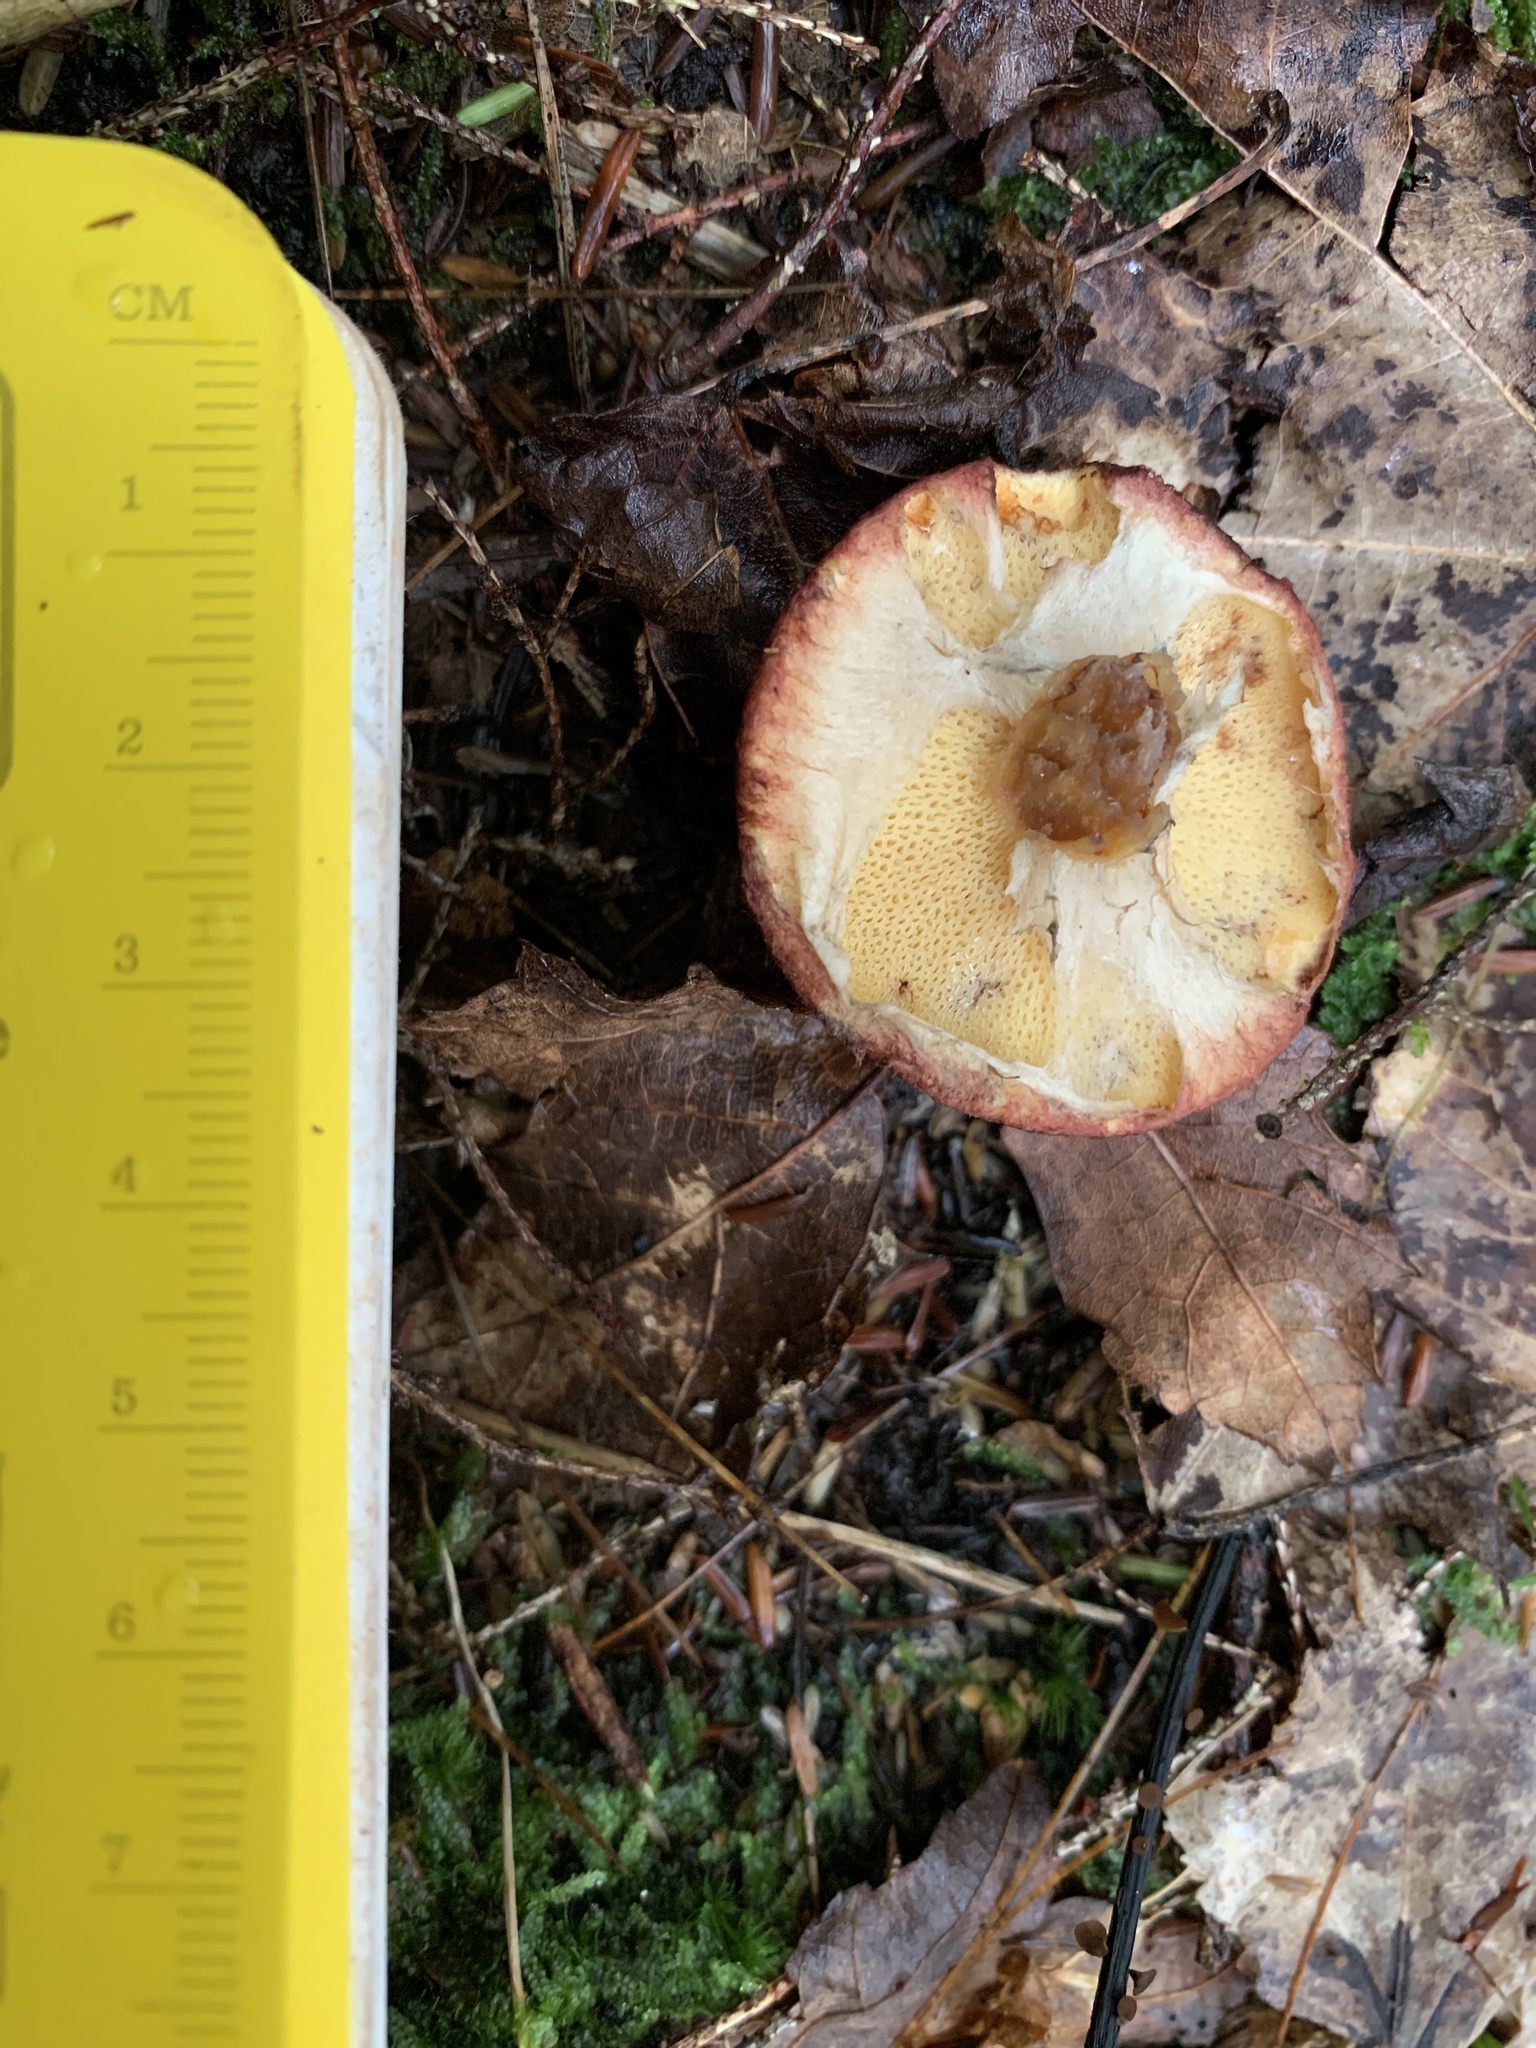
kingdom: Fungi
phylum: Basidiomycota
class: Agaricomycetes
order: Boletales
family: Suillaceae
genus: Suillus
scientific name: Suillus spraguei
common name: Painted suillus
